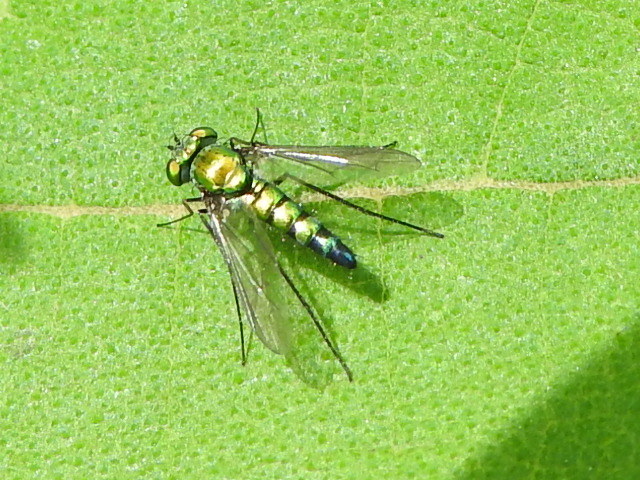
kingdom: Animalia
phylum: Arthropoda
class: Insecta
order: Diptera
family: Dolichopodidae
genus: Condylostylus
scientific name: Condylostylus longicornis
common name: Long-legged fly
